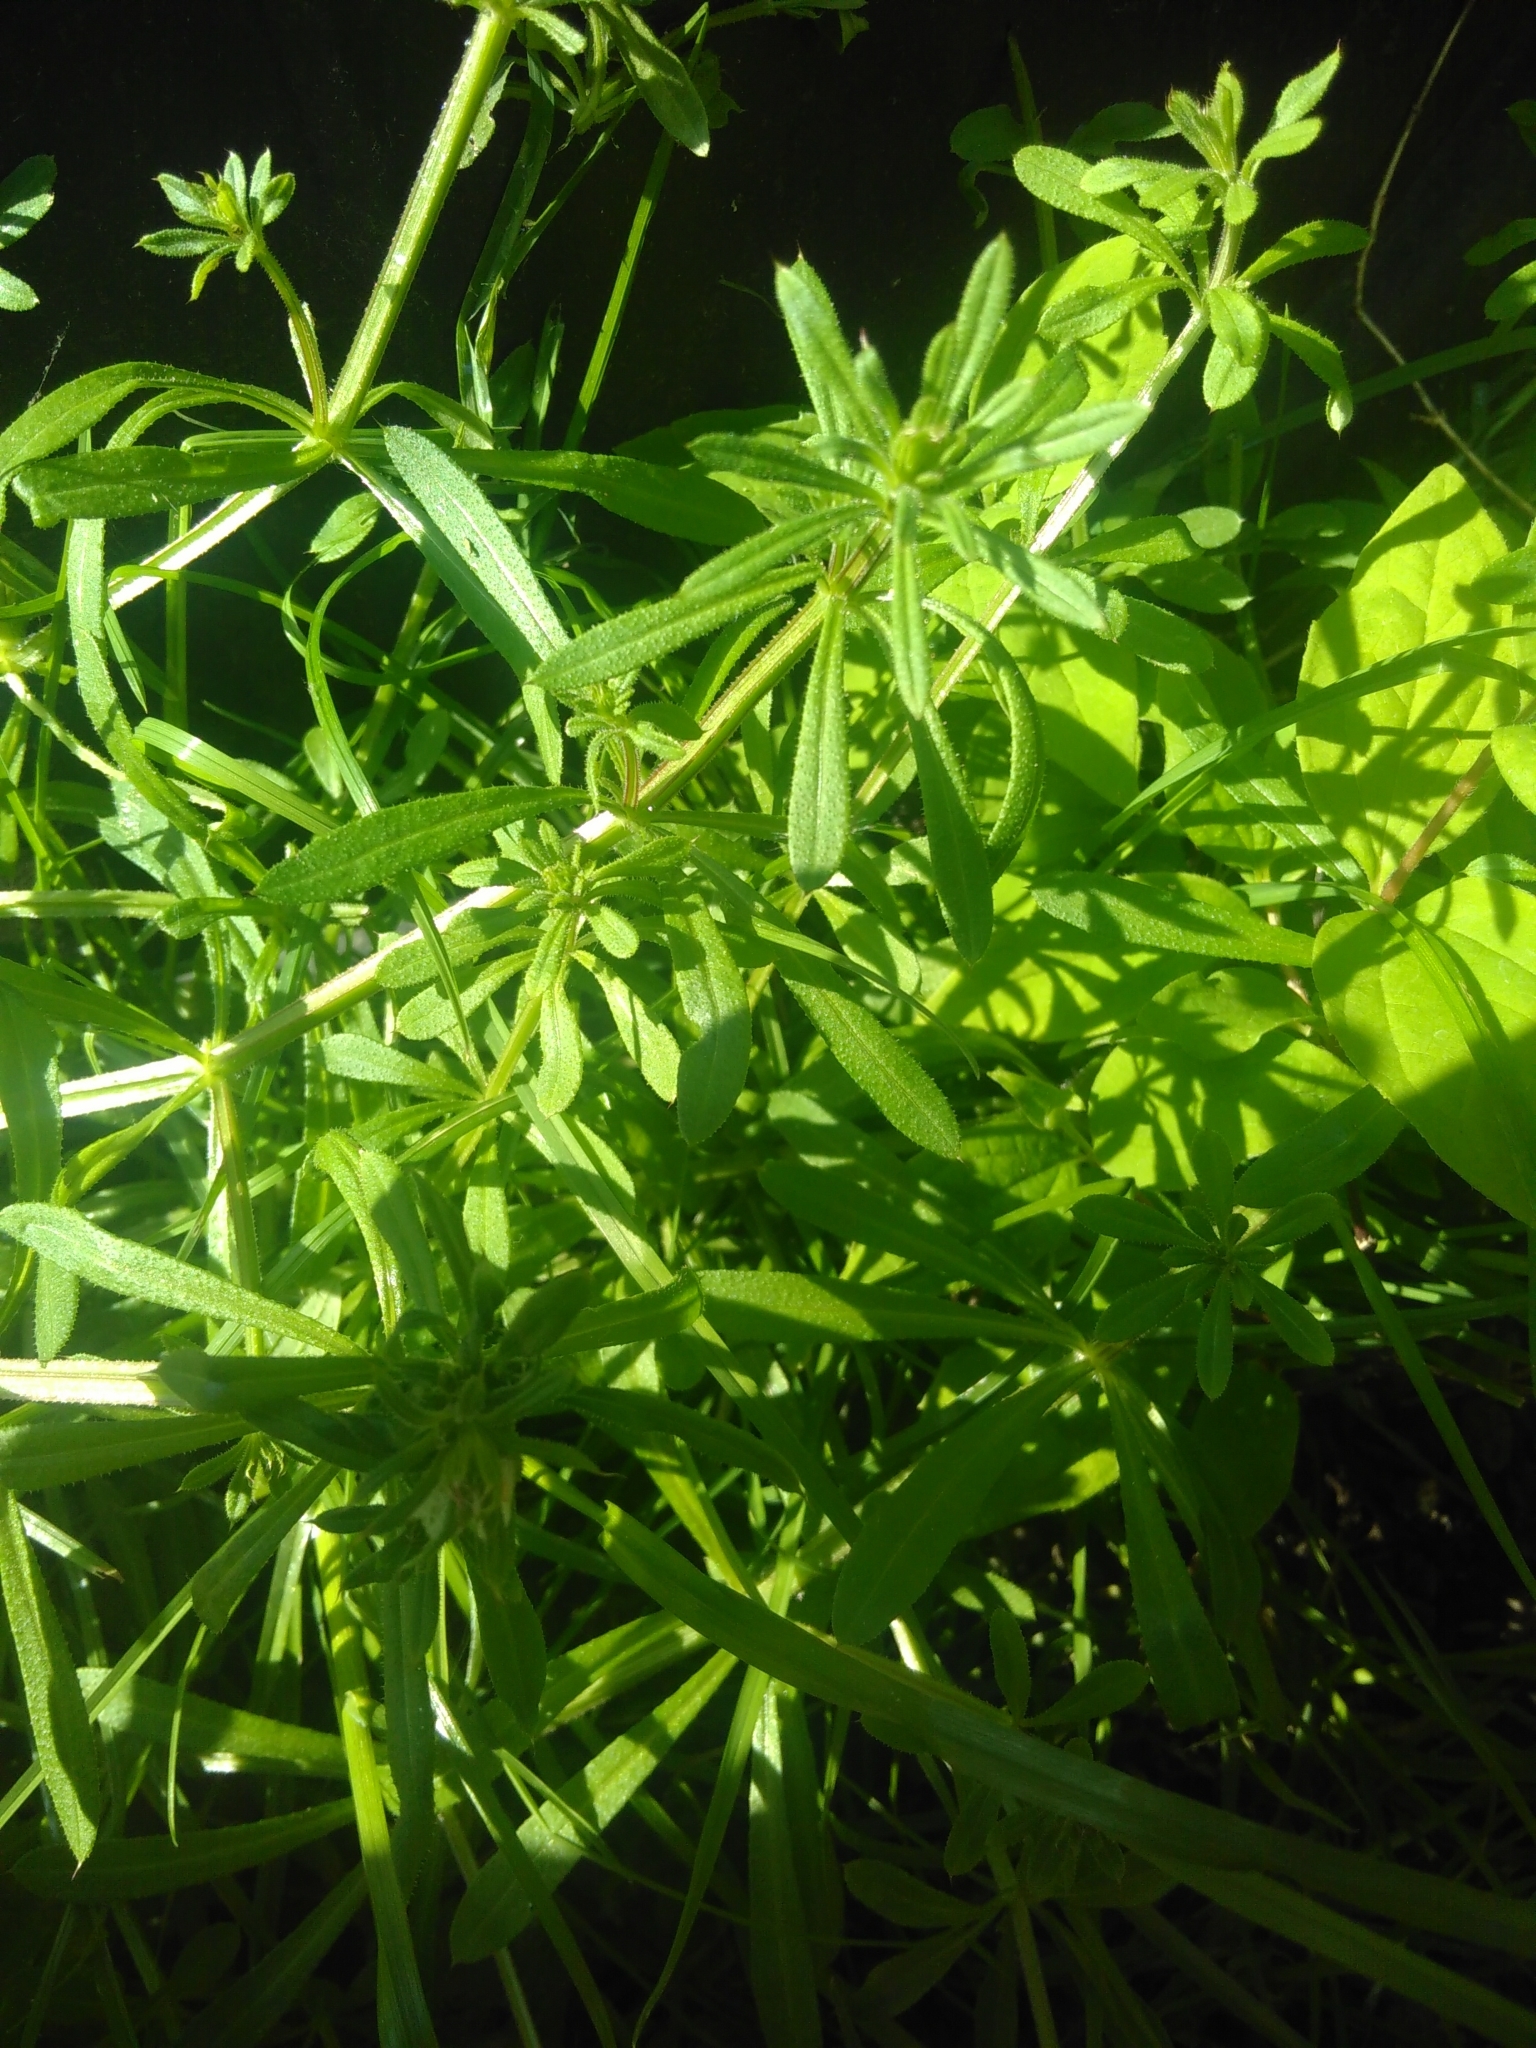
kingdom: Plantae
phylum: Tracheophyta
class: Magnoliopsida
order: Gentianales
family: Rubiaceae
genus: Galium
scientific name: Galium aparine
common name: Cleavers
